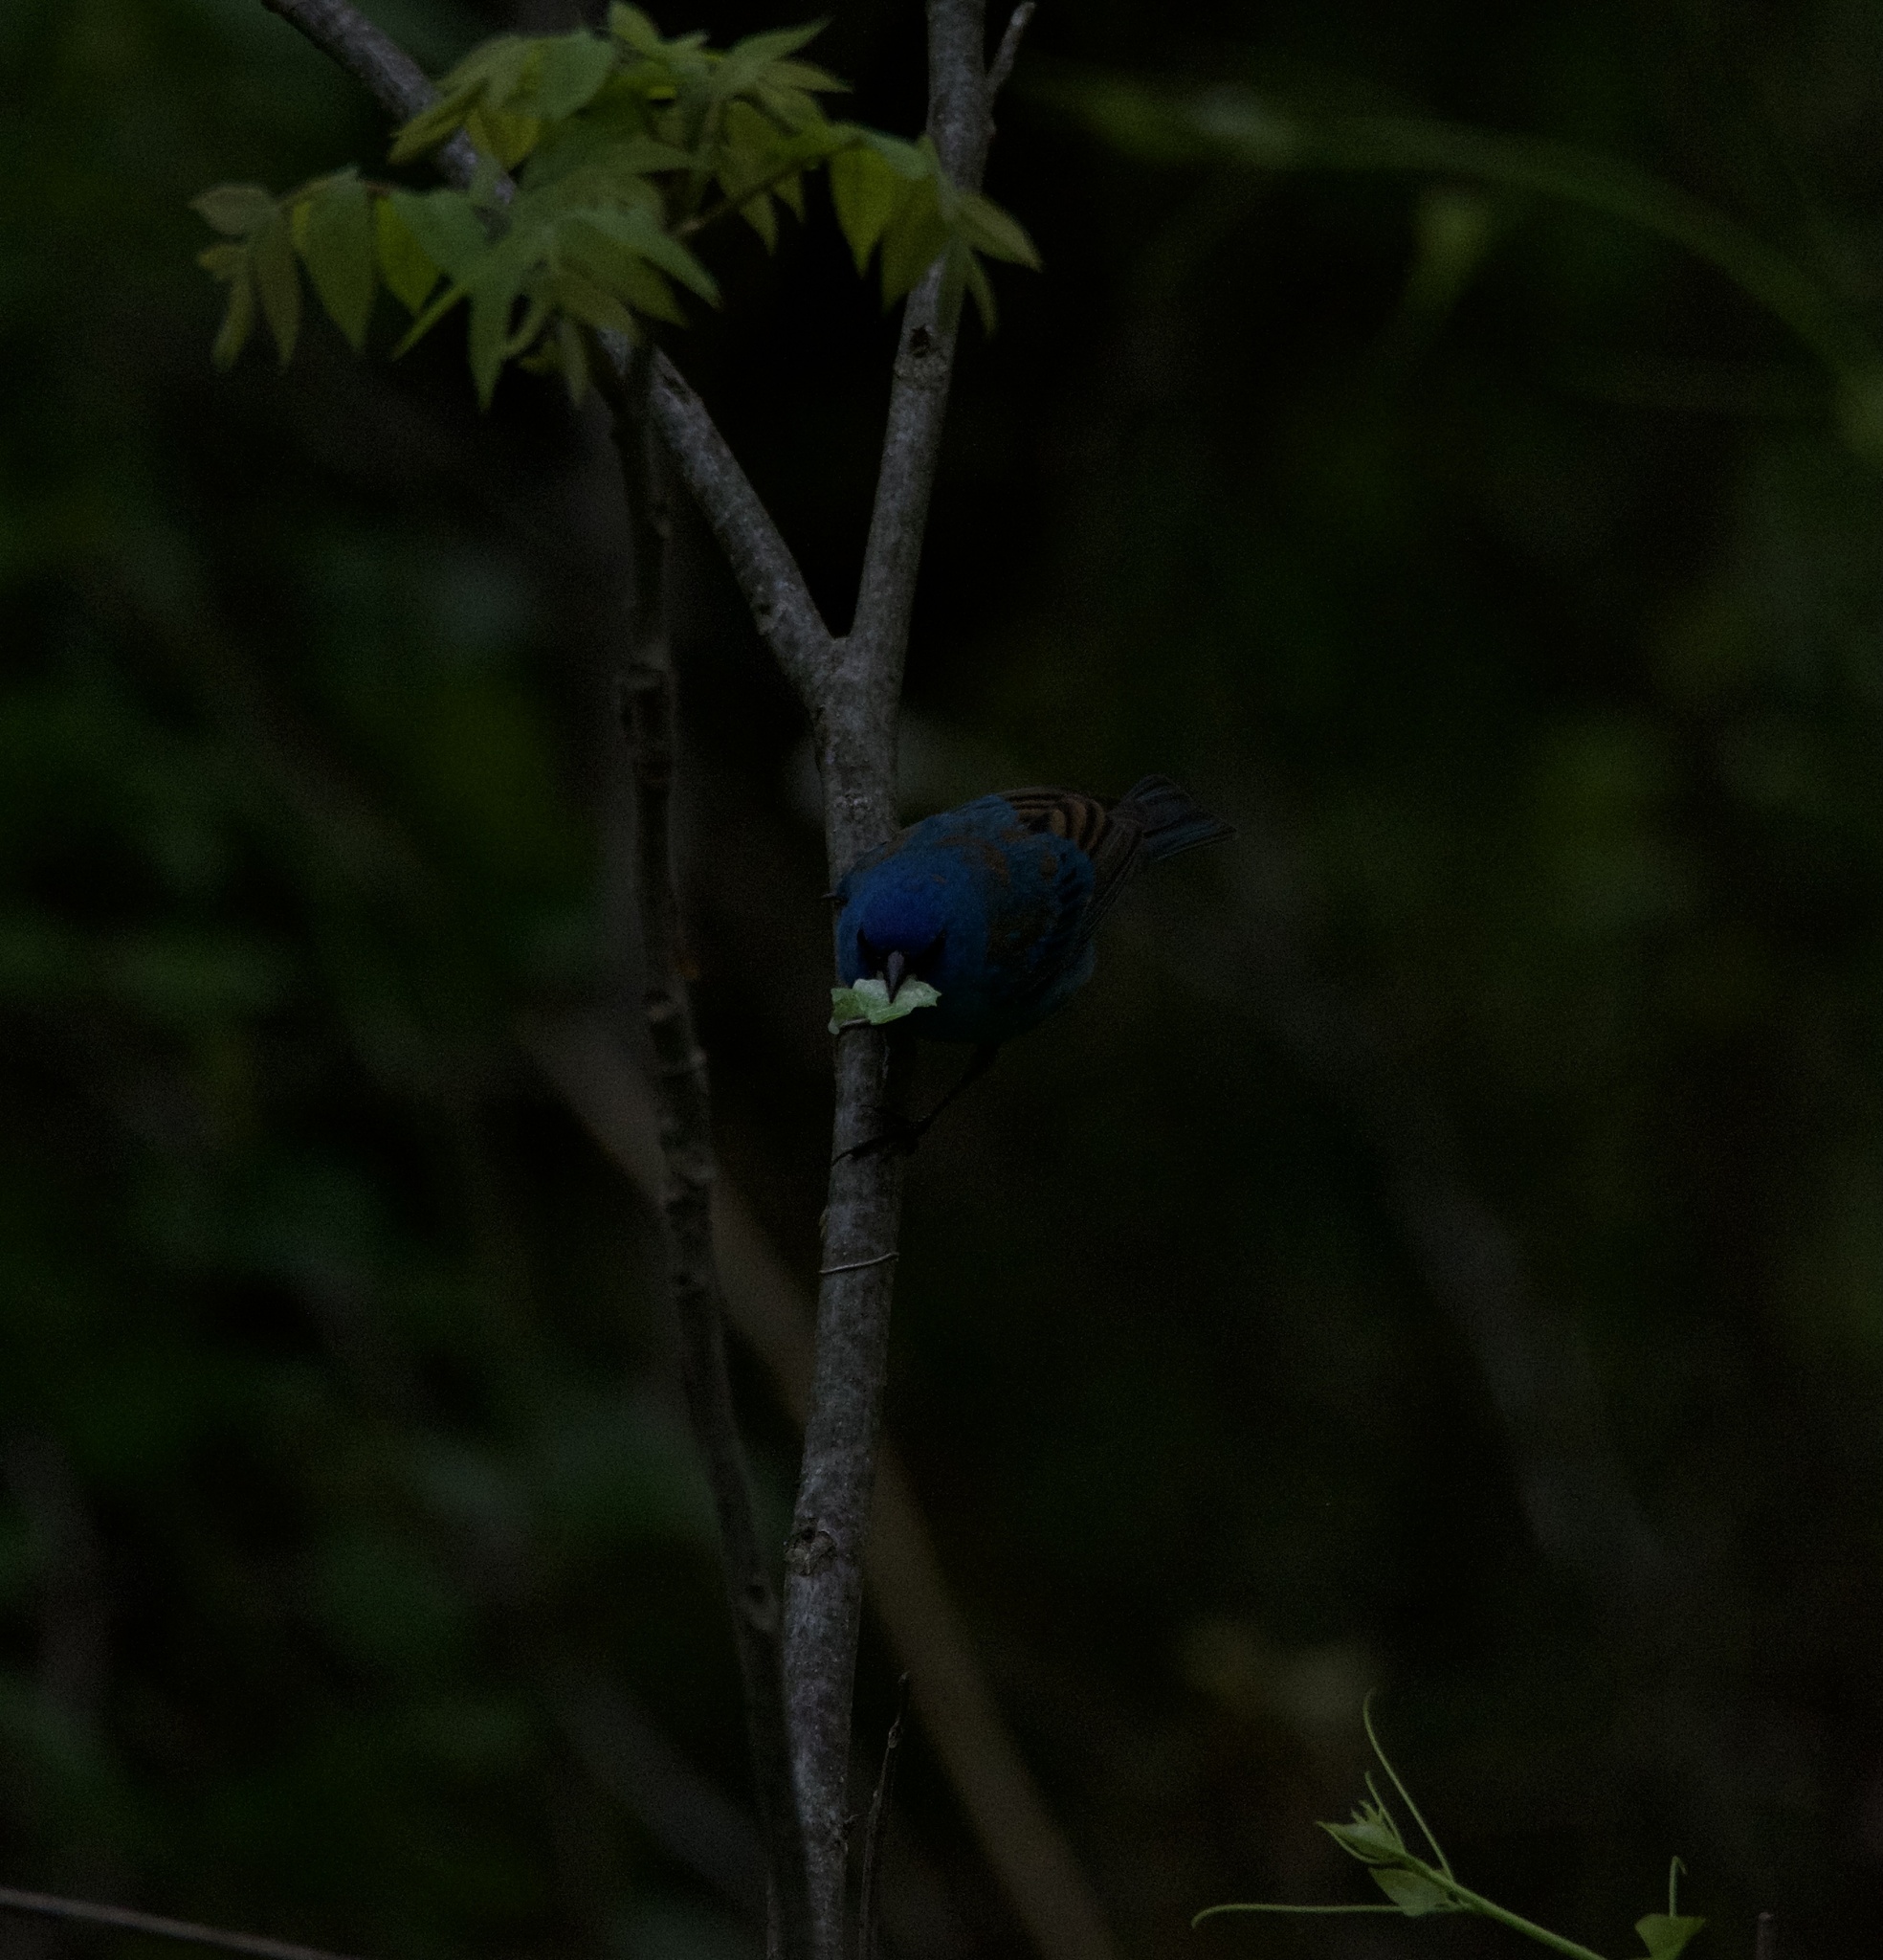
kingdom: Animalia
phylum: Chordata
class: Aves
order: Passeriformes
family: Cardinalidae
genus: Passerina
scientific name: Passerina cyanea
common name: Indigo bunting
